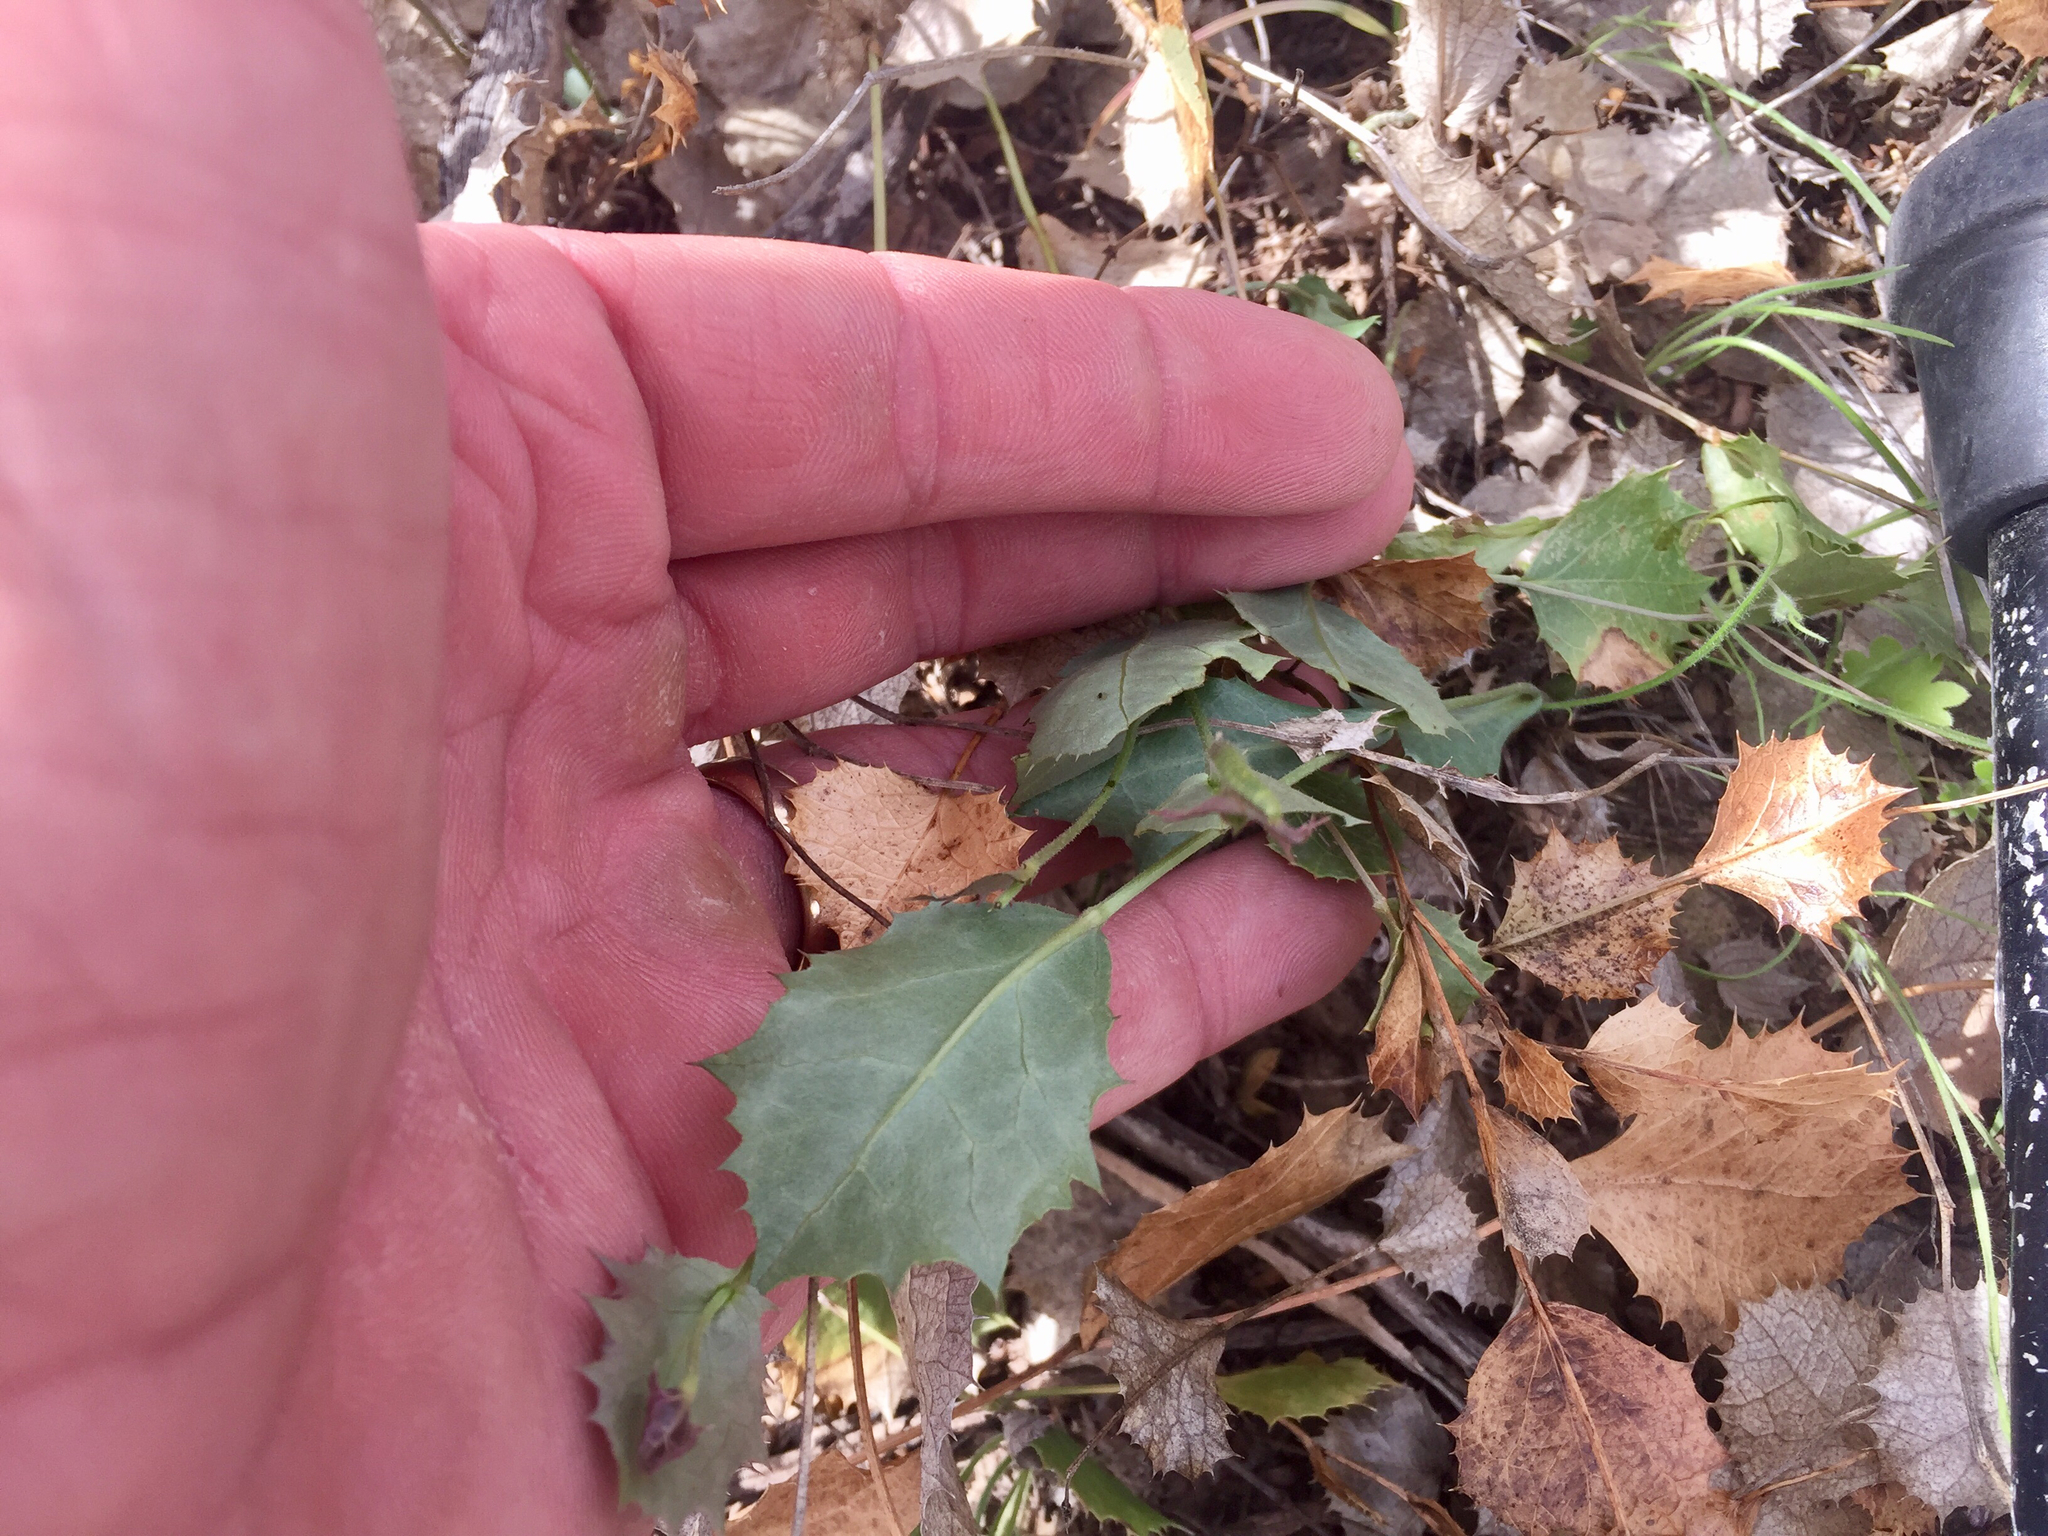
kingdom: Plantae
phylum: Tracheophyta
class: Magnoliopsida
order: Asterales
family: Asteraceae
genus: Acourtia
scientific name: Acourtia nana
